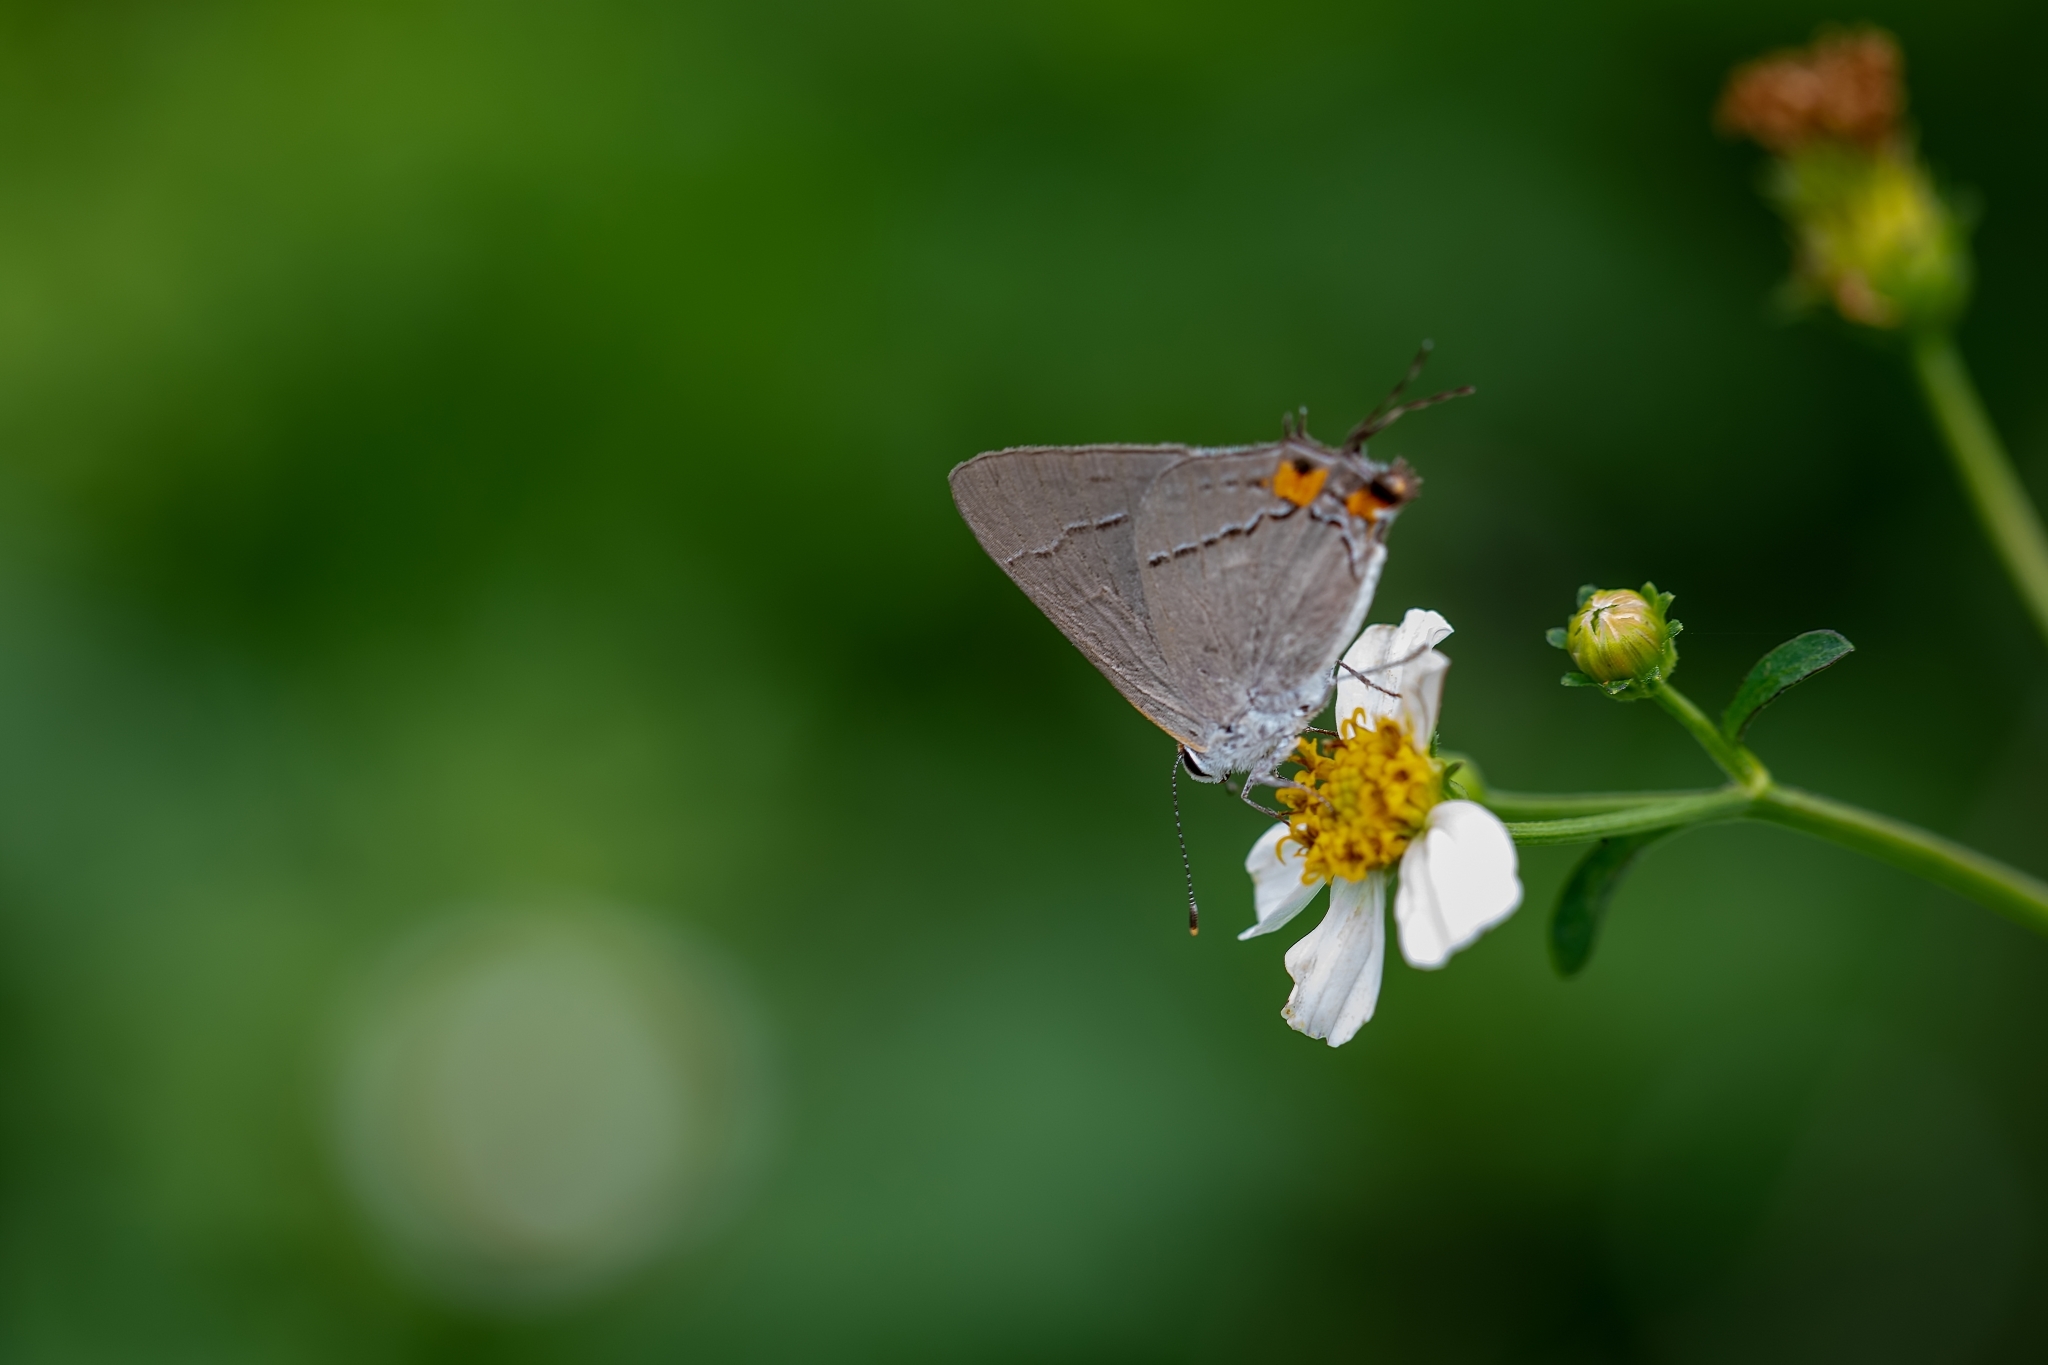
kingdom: Animalia
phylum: Arthropoda
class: Insecta
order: Lepidoptera
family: Lycaenidae
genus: Strymon
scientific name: Strymon melinus
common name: Gray hairstreak
